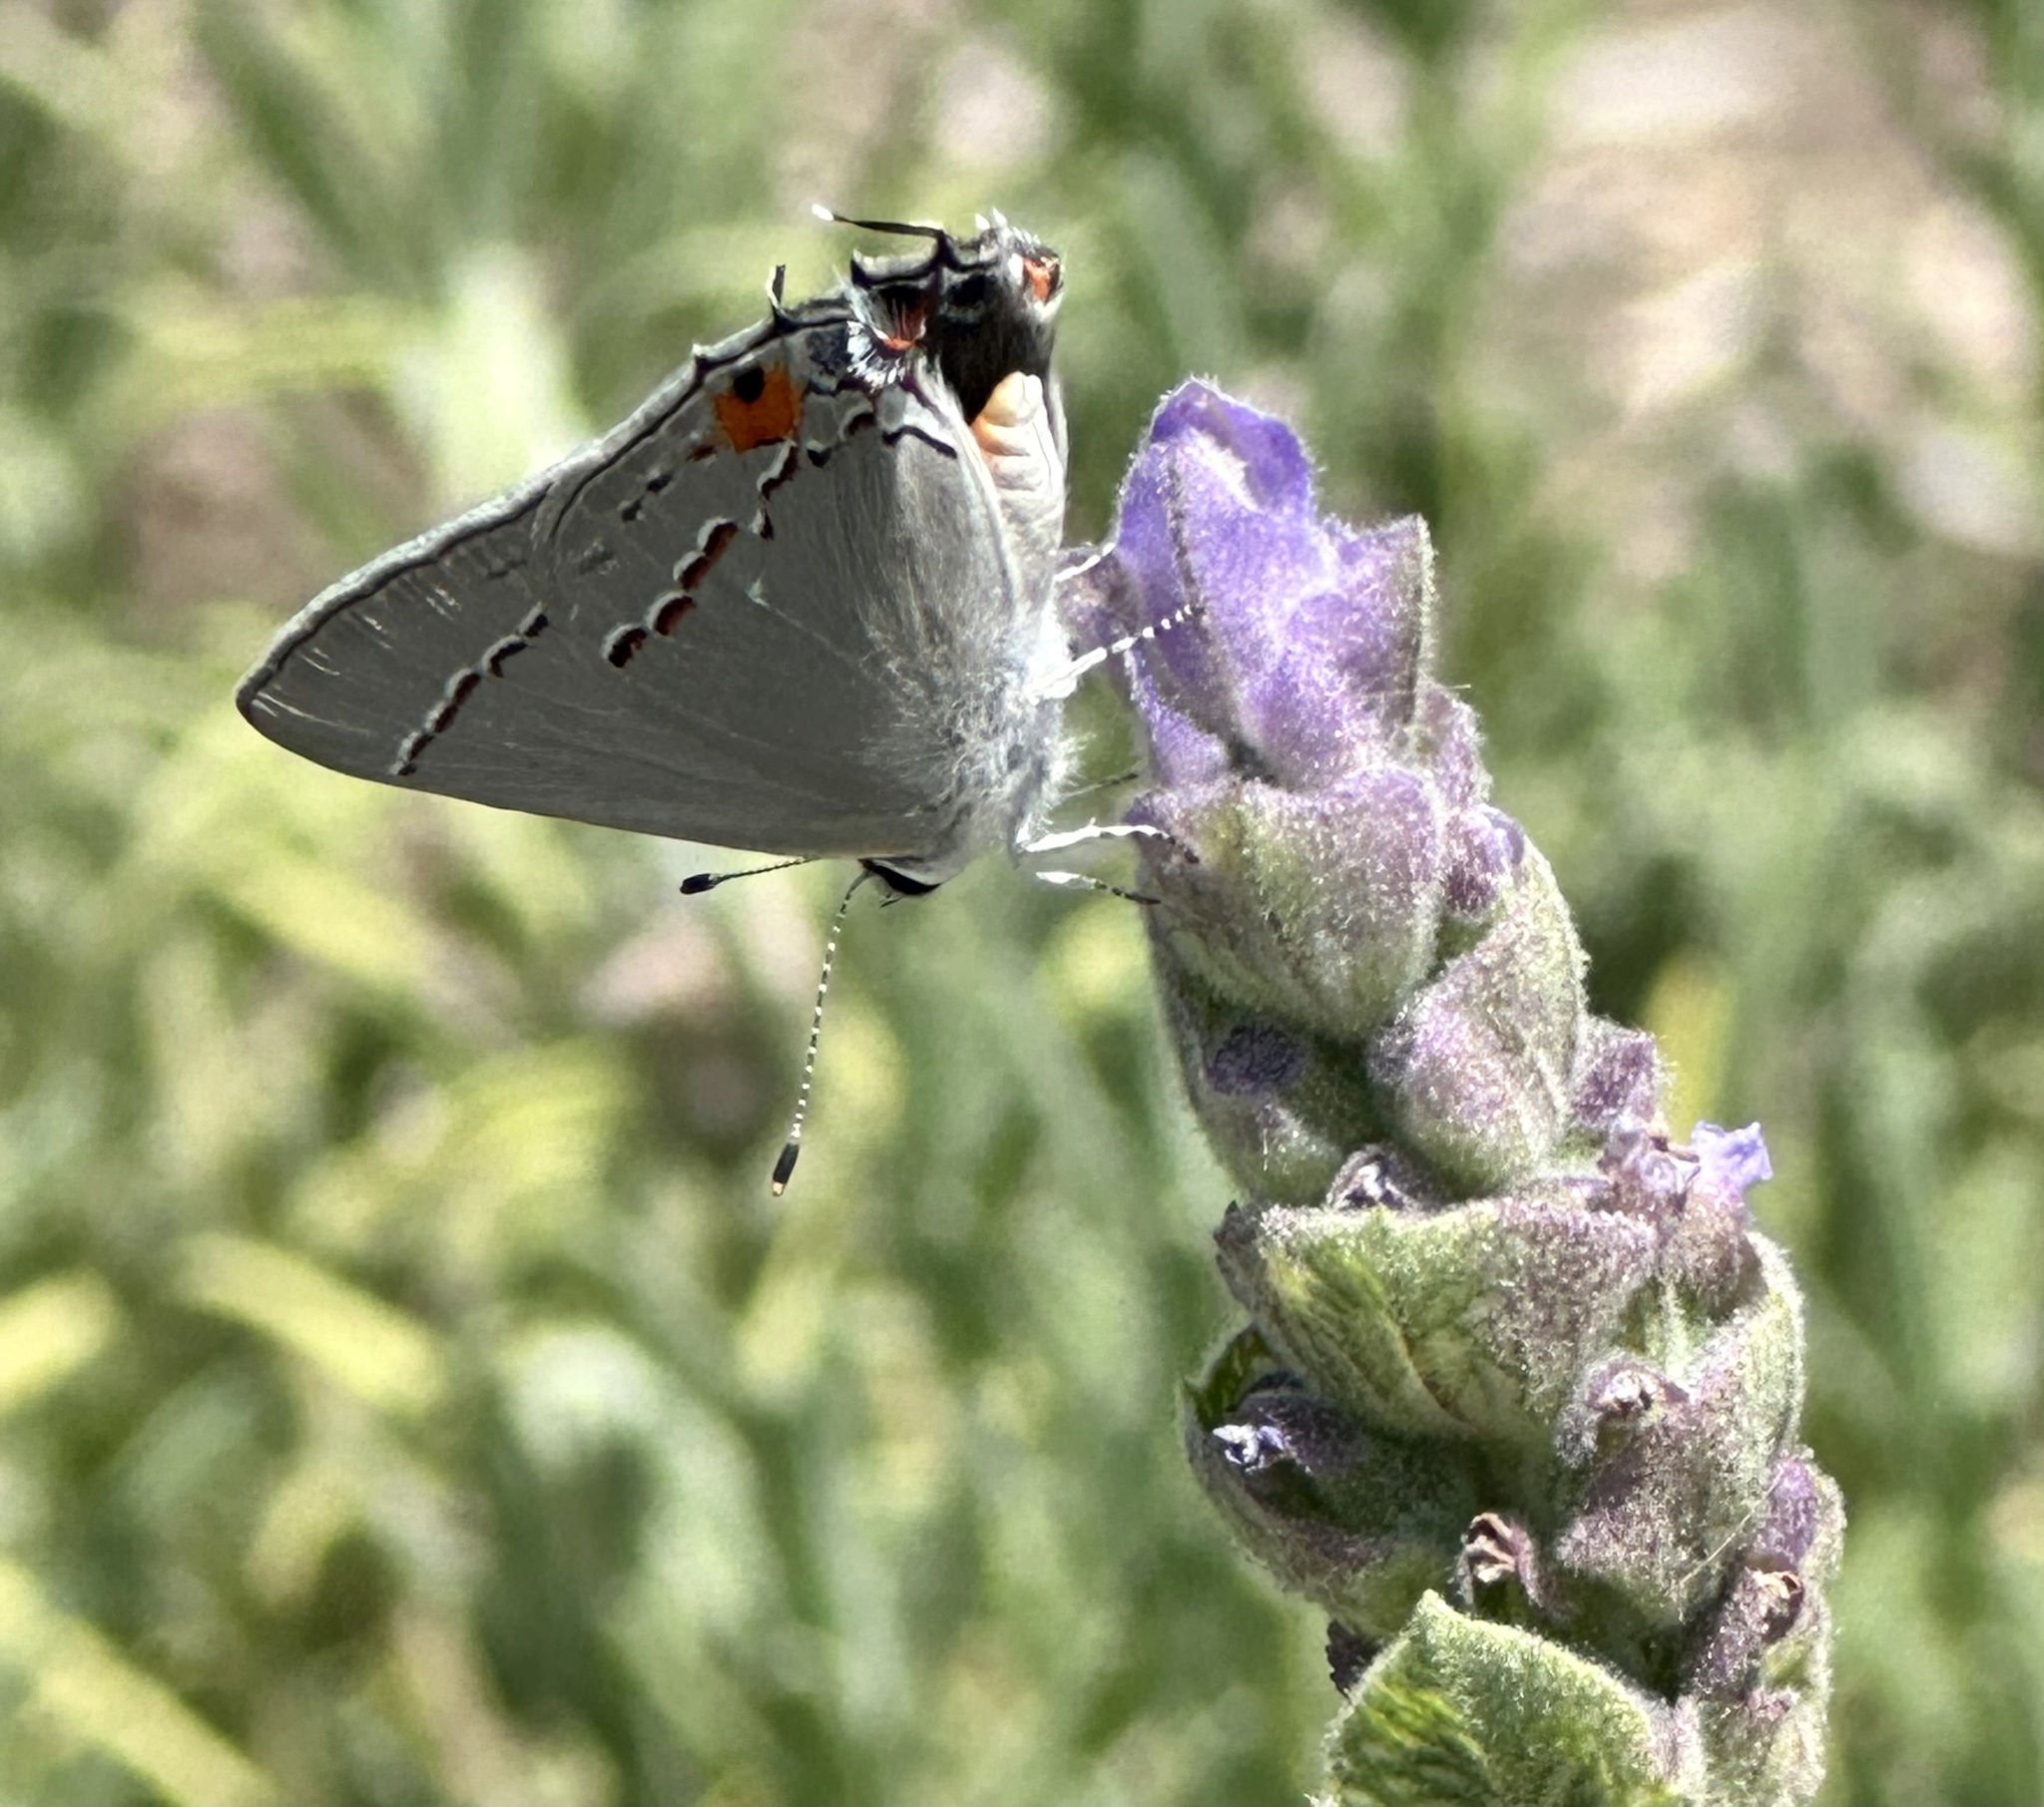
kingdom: Animalia
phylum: Arthropoda
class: Insecta
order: Lepidoptera
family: Lycaenidae
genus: Strymon
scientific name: Strymon melinus
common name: Gray hairstreak
